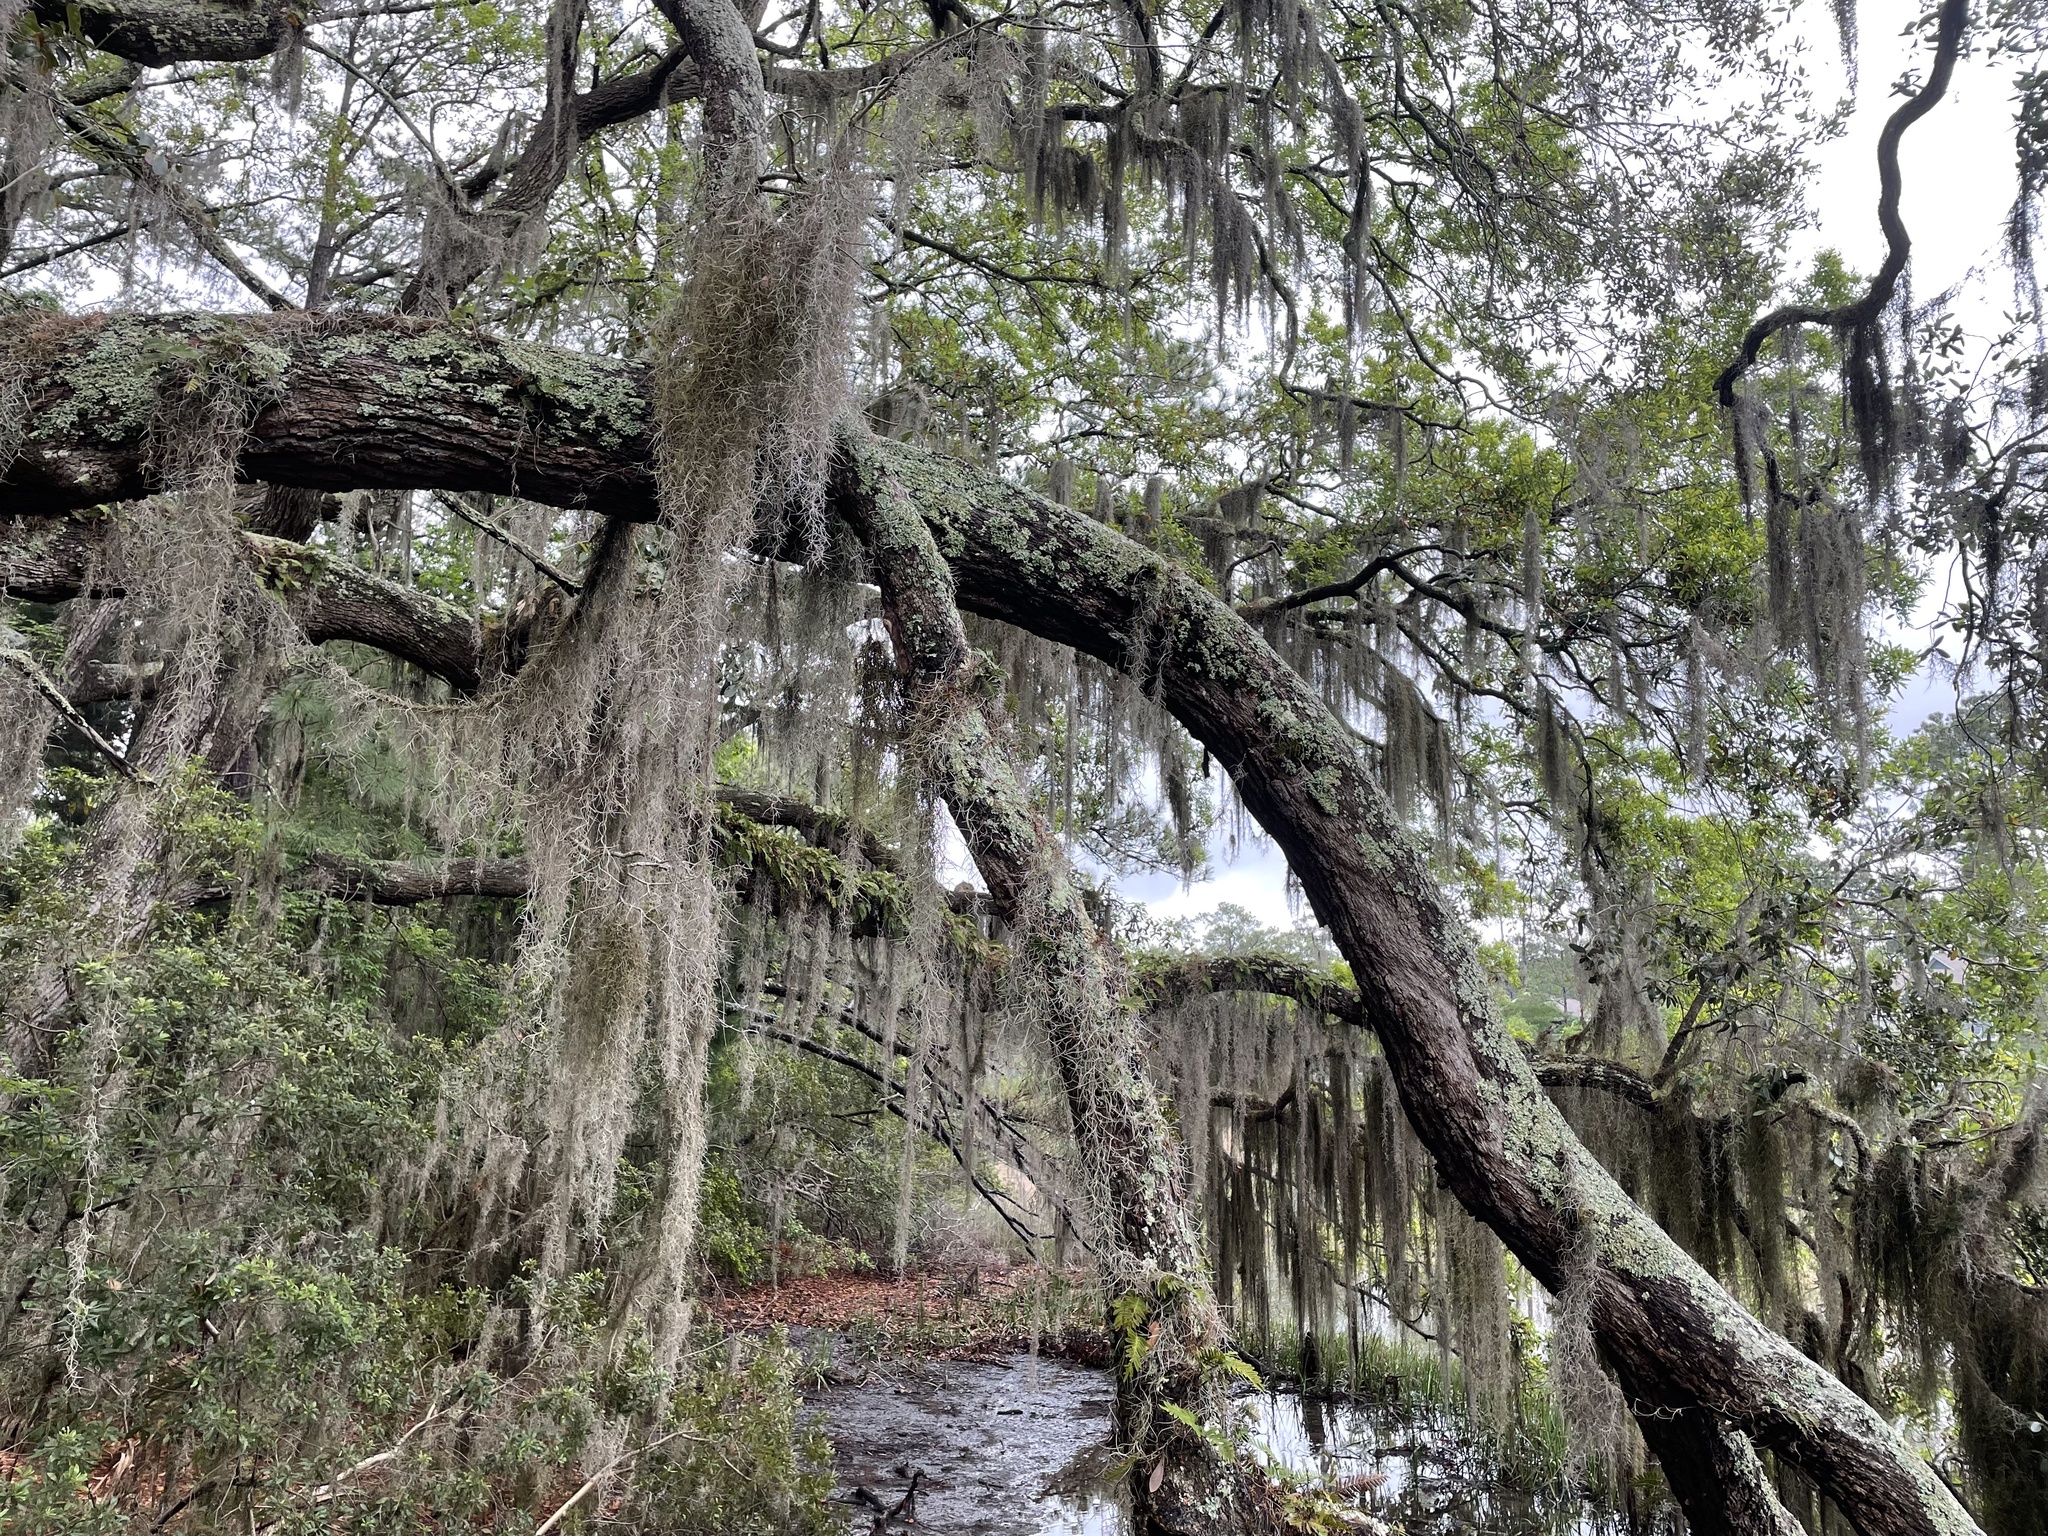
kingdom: Plantae
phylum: Tracheophyta
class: Liliopsida
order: Poales
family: Bromeliaceae
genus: Tillandsia
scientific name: Tillandsia usneoides
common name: Spanish moss
